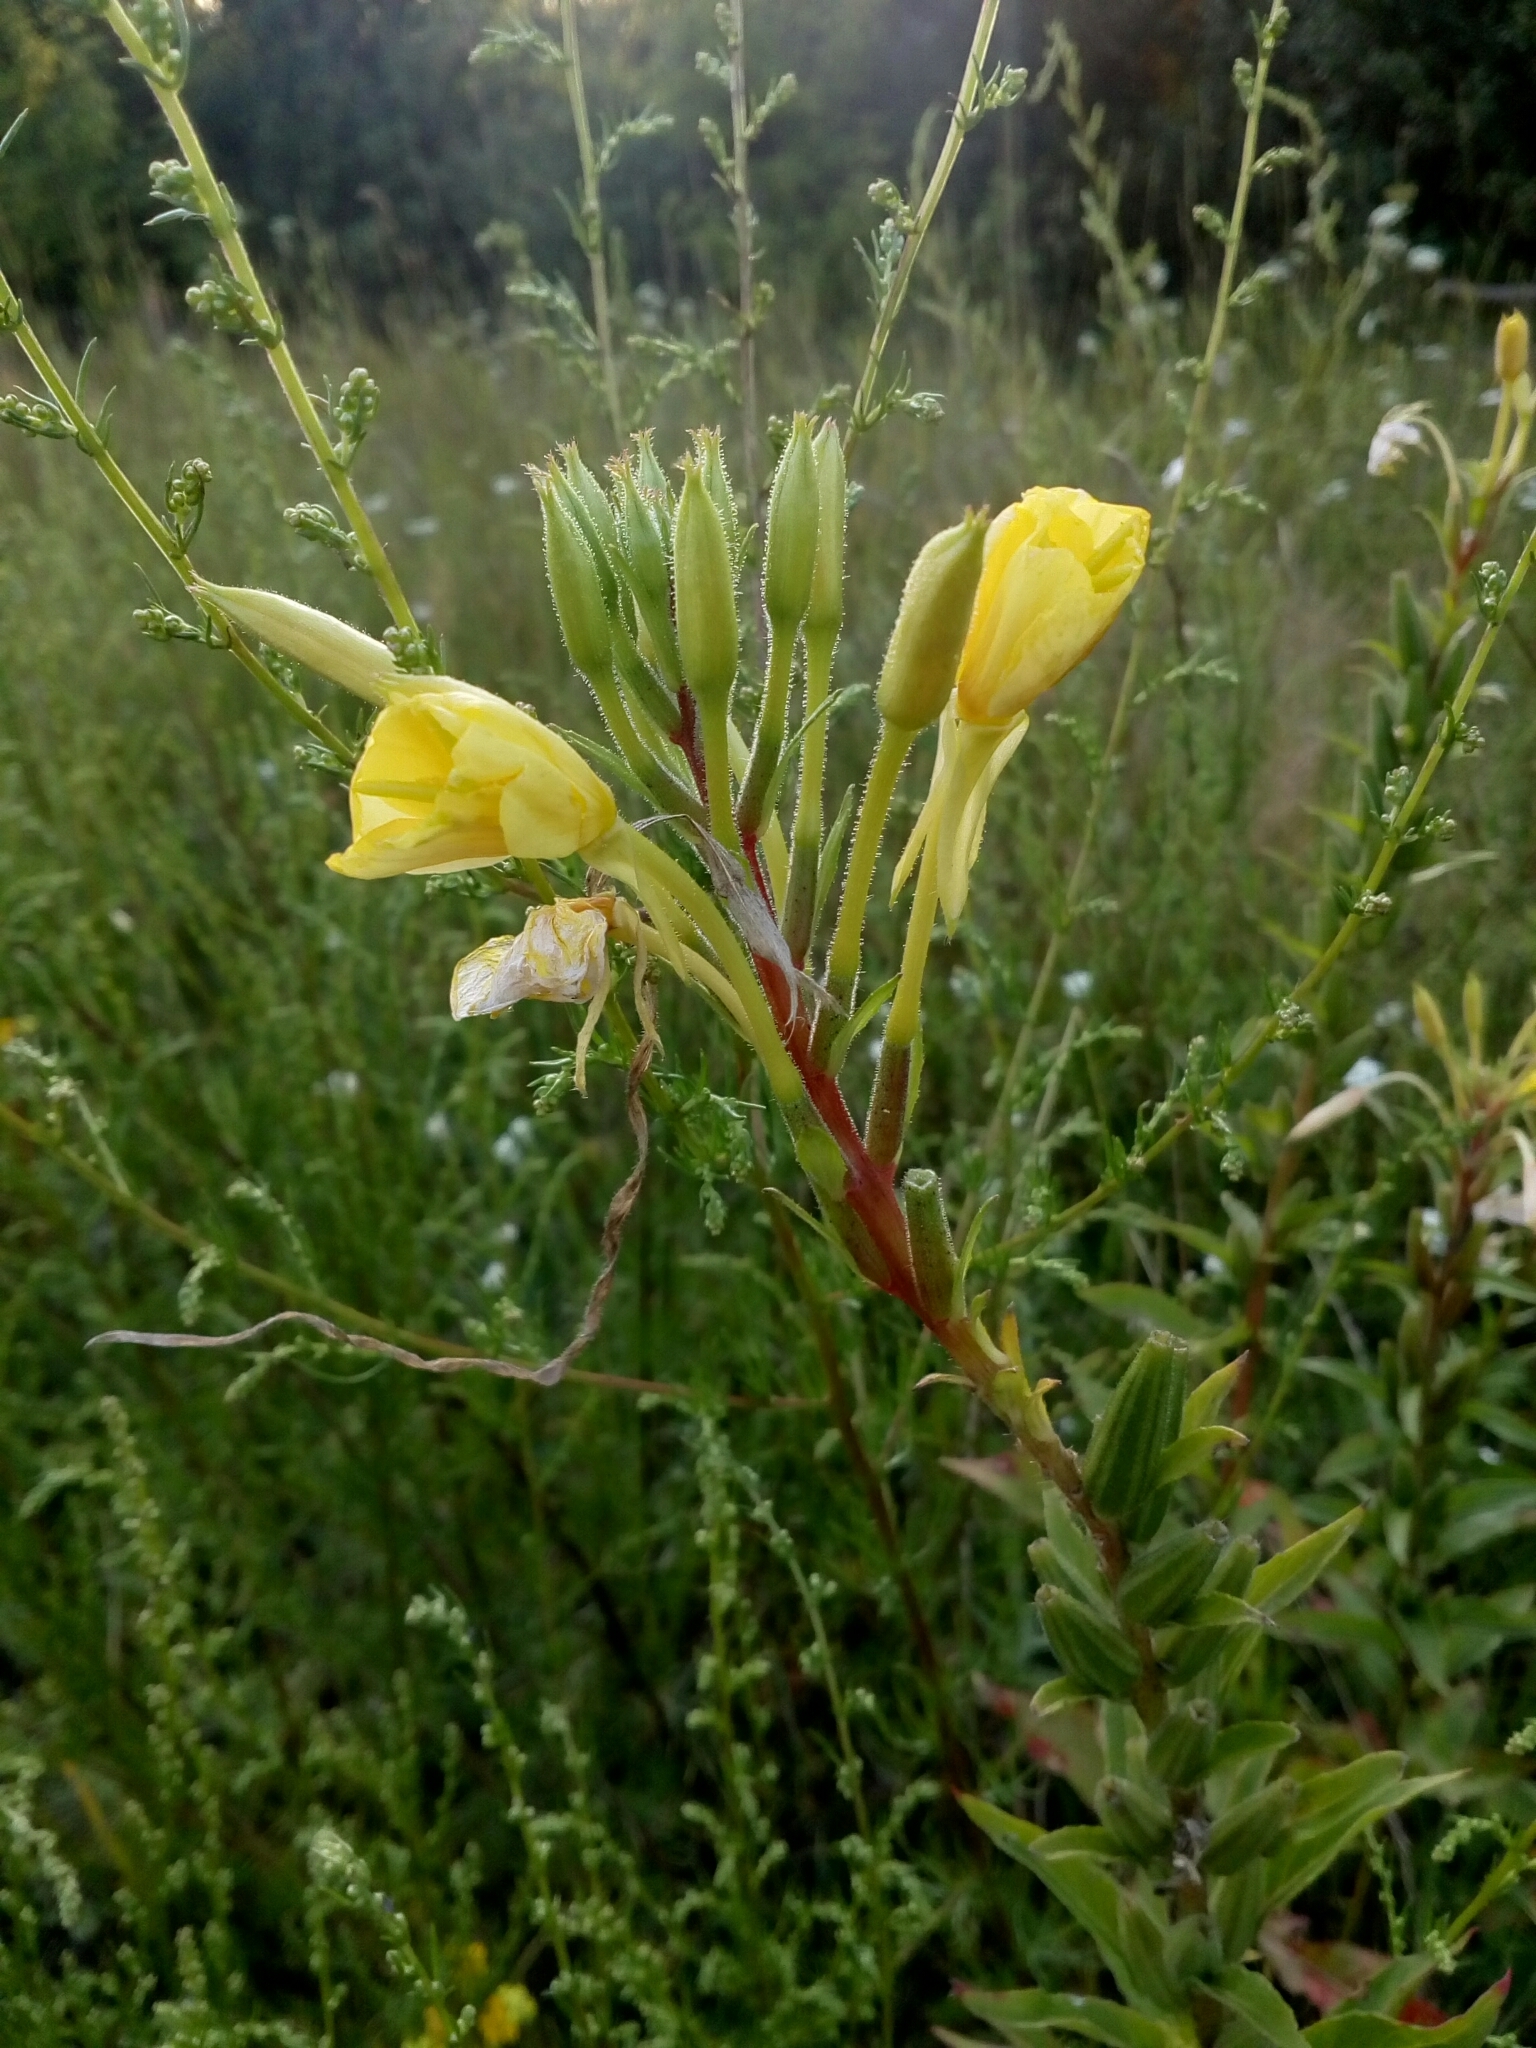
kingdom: Plantae
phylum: Tracheophyta
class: Magnoliopsida
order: Myrtales
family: Onagraceae
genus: Oenothera
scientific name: Oenothera rubricaulis
